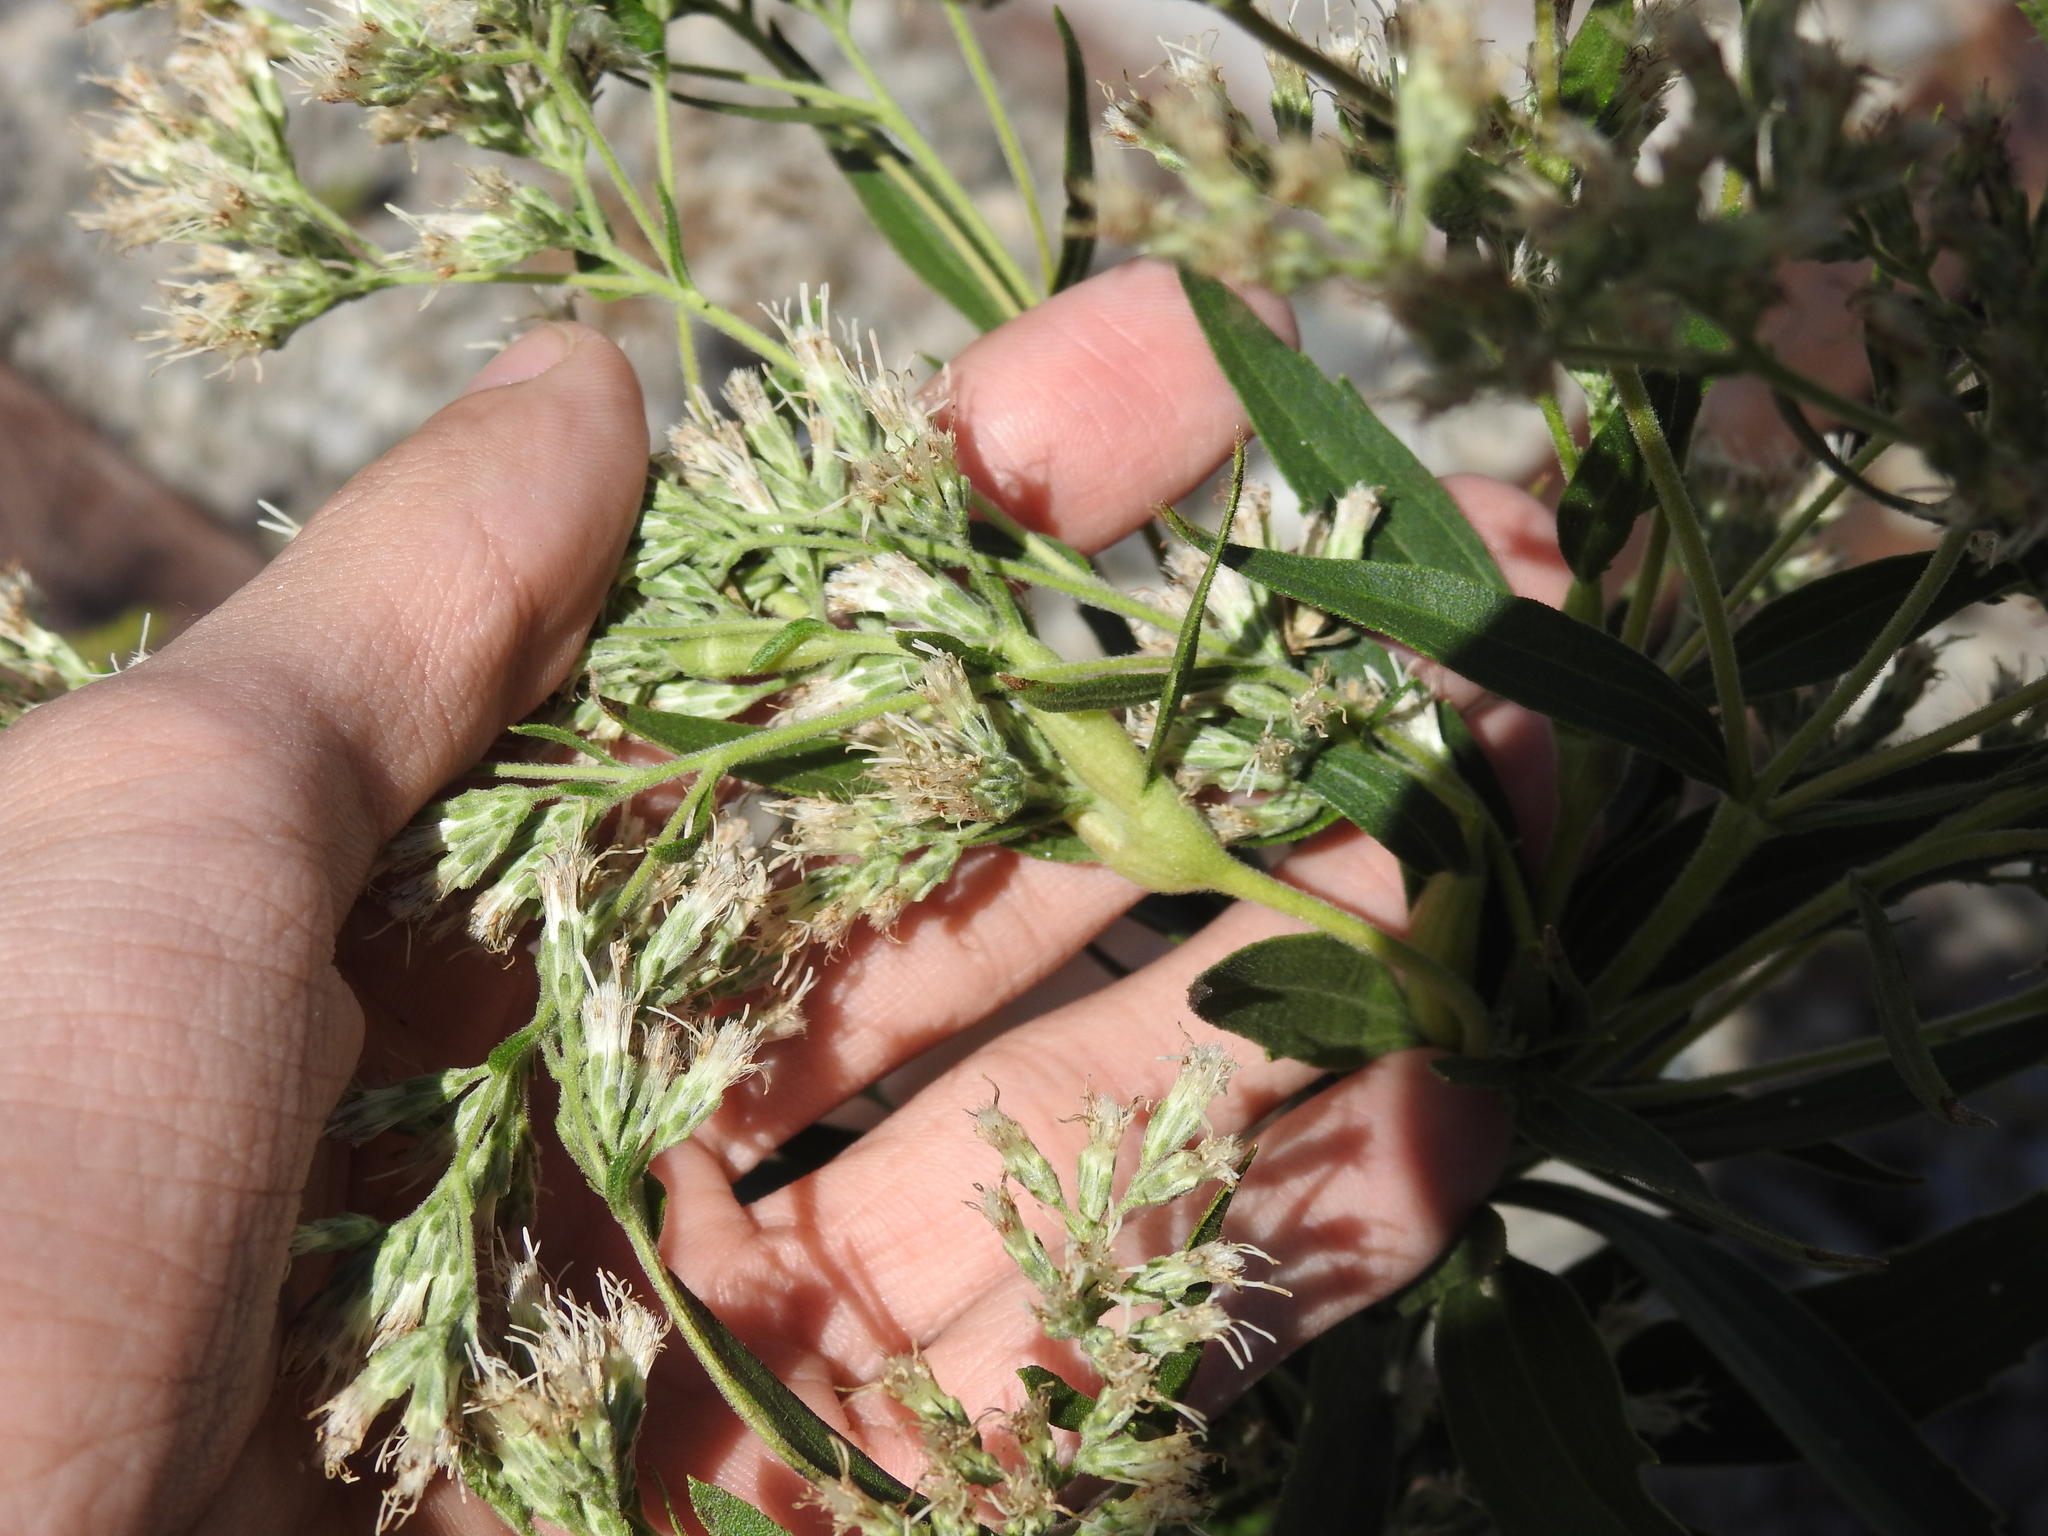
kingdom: Animalia
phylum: Arthropoda
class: Insecta
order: Diptera
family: Cecidomyiidae
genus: Neolasioptera
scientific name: Neolasioptera perfoliata
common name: Boneset stem midge
